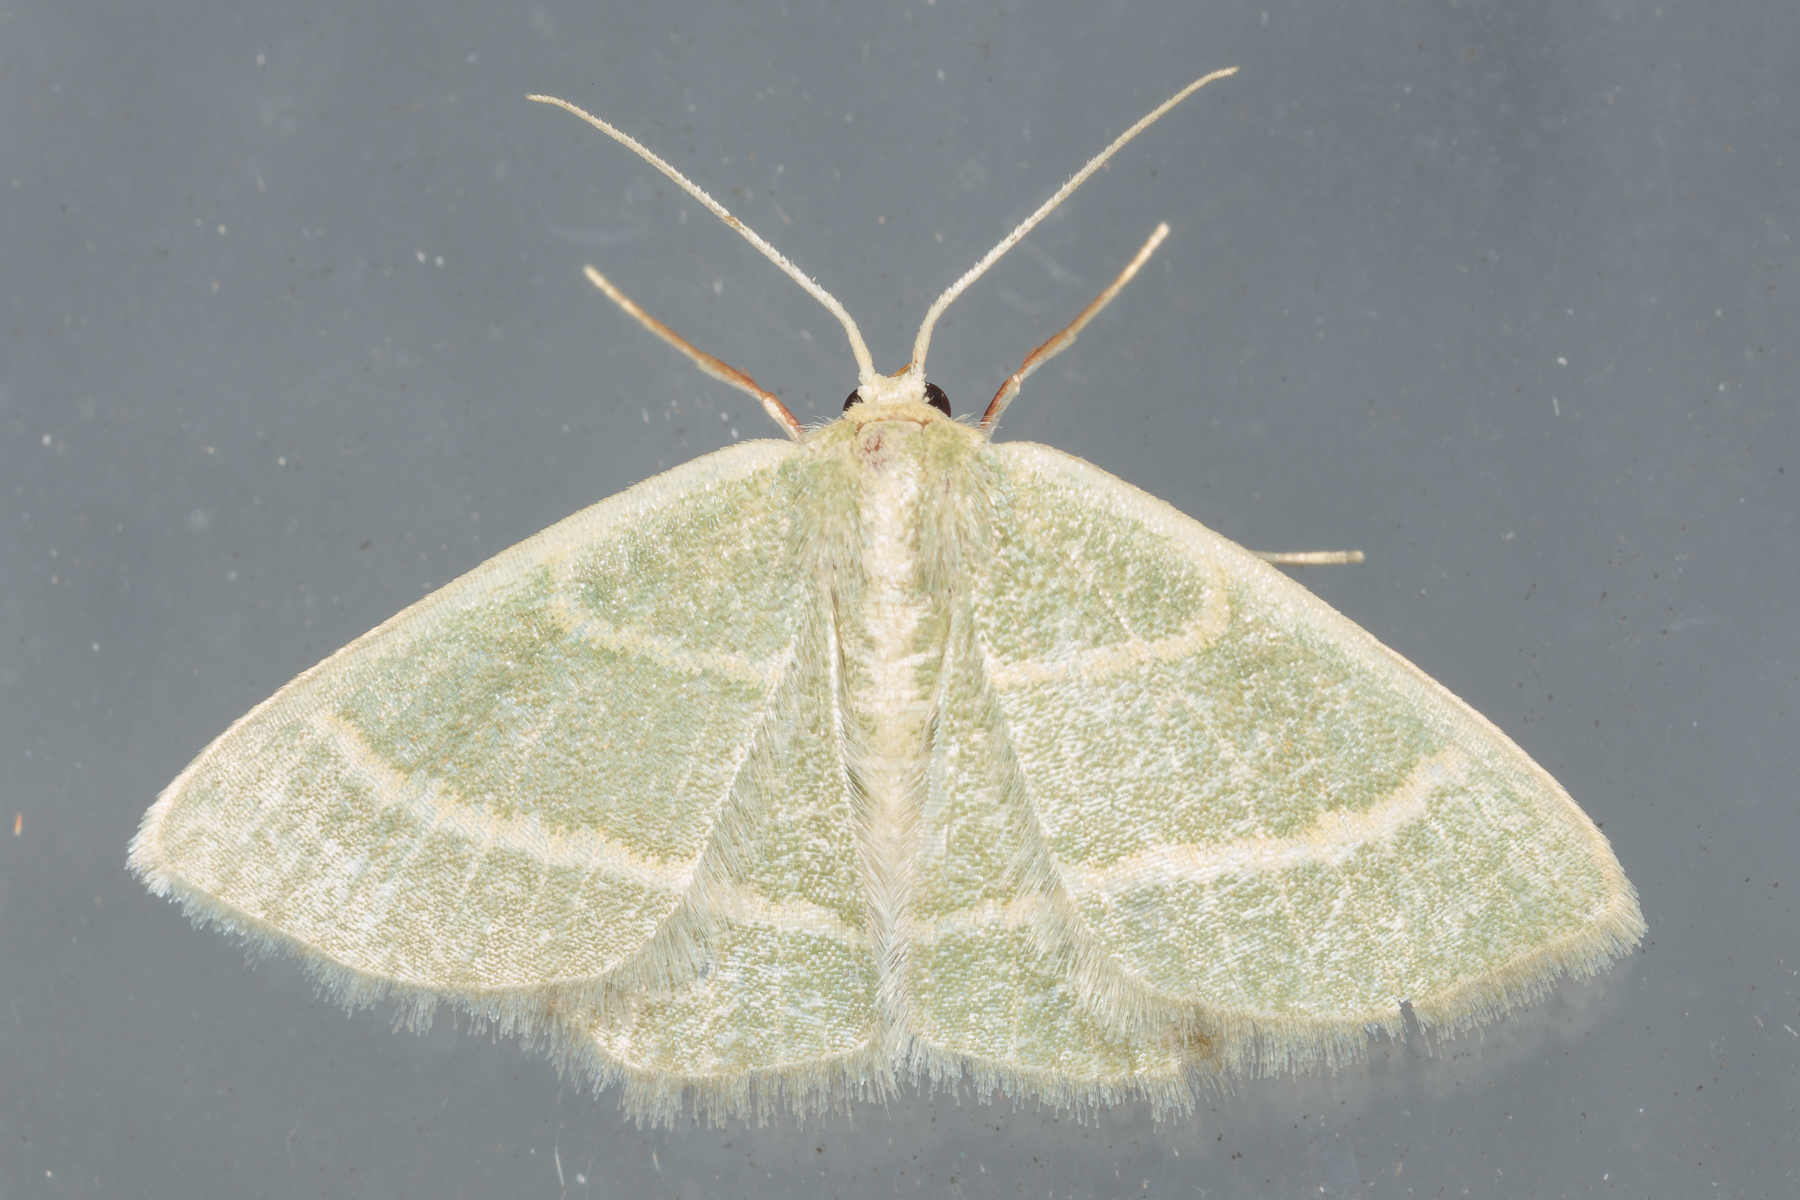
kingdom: Animalia
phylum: Arthropoda
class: Insecta
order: Lepidoptera
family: Geometridae
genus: Chlorochlamys
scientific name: Chlorochlamys chloroleucaria
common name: Blackberry looper
